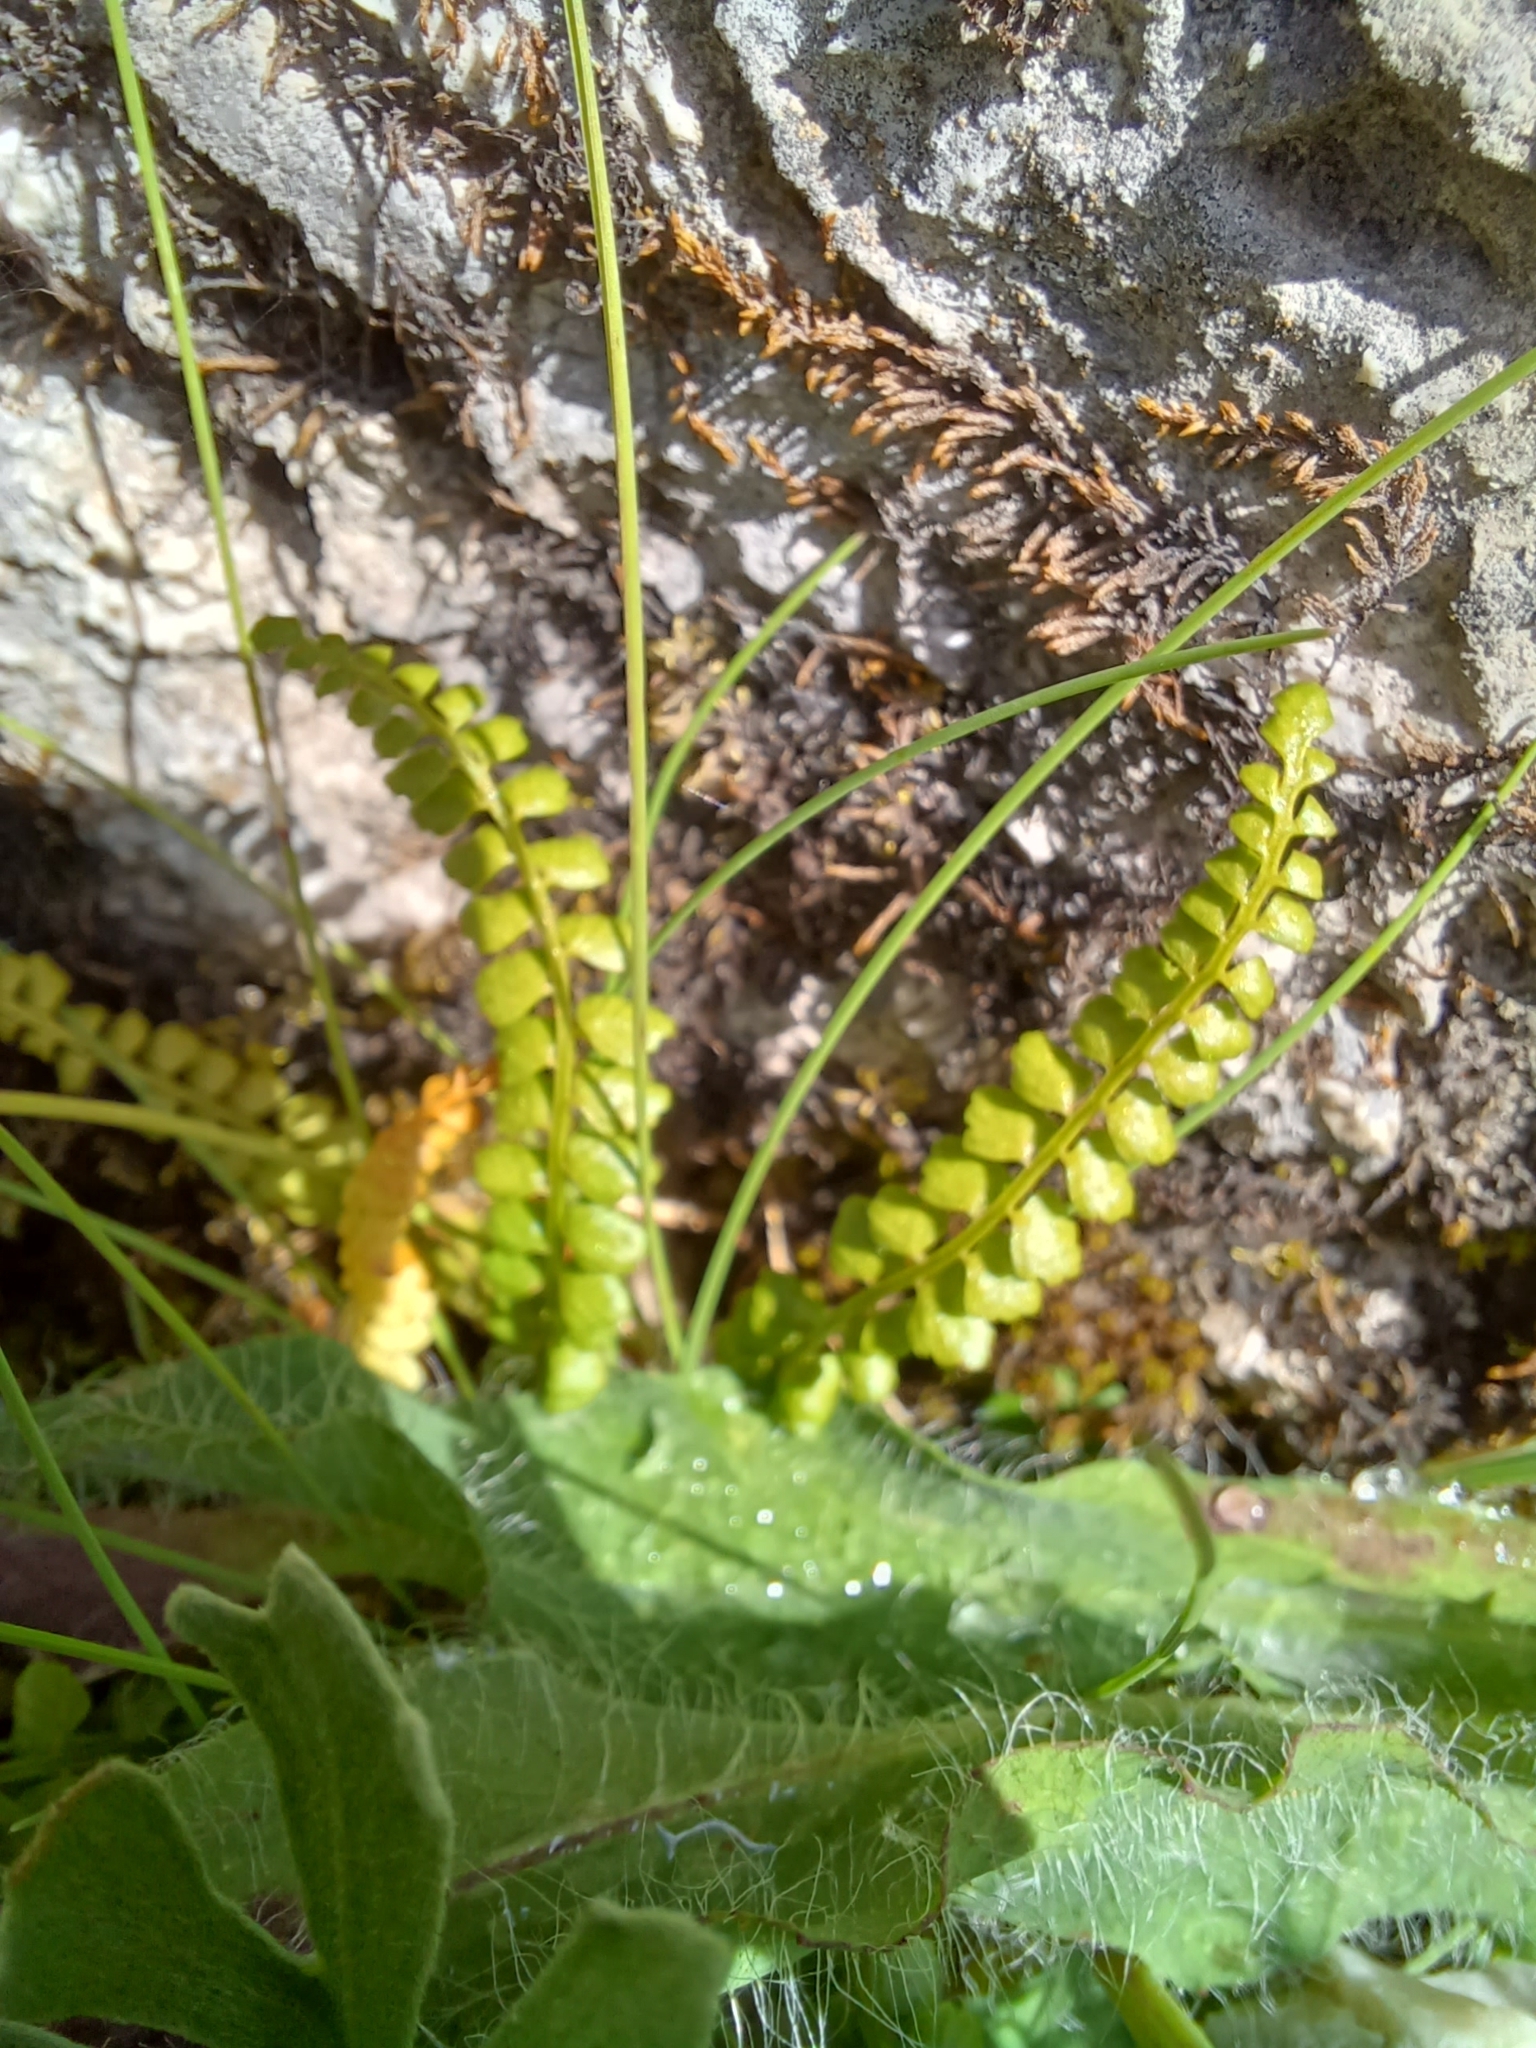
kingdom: Plantae
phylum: Tracheophyta
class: Polypodiopsida
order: Polypodiales
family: Aspleniaceae
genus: Asplenium
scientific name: Asplenium viride
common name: Green spleenwort
